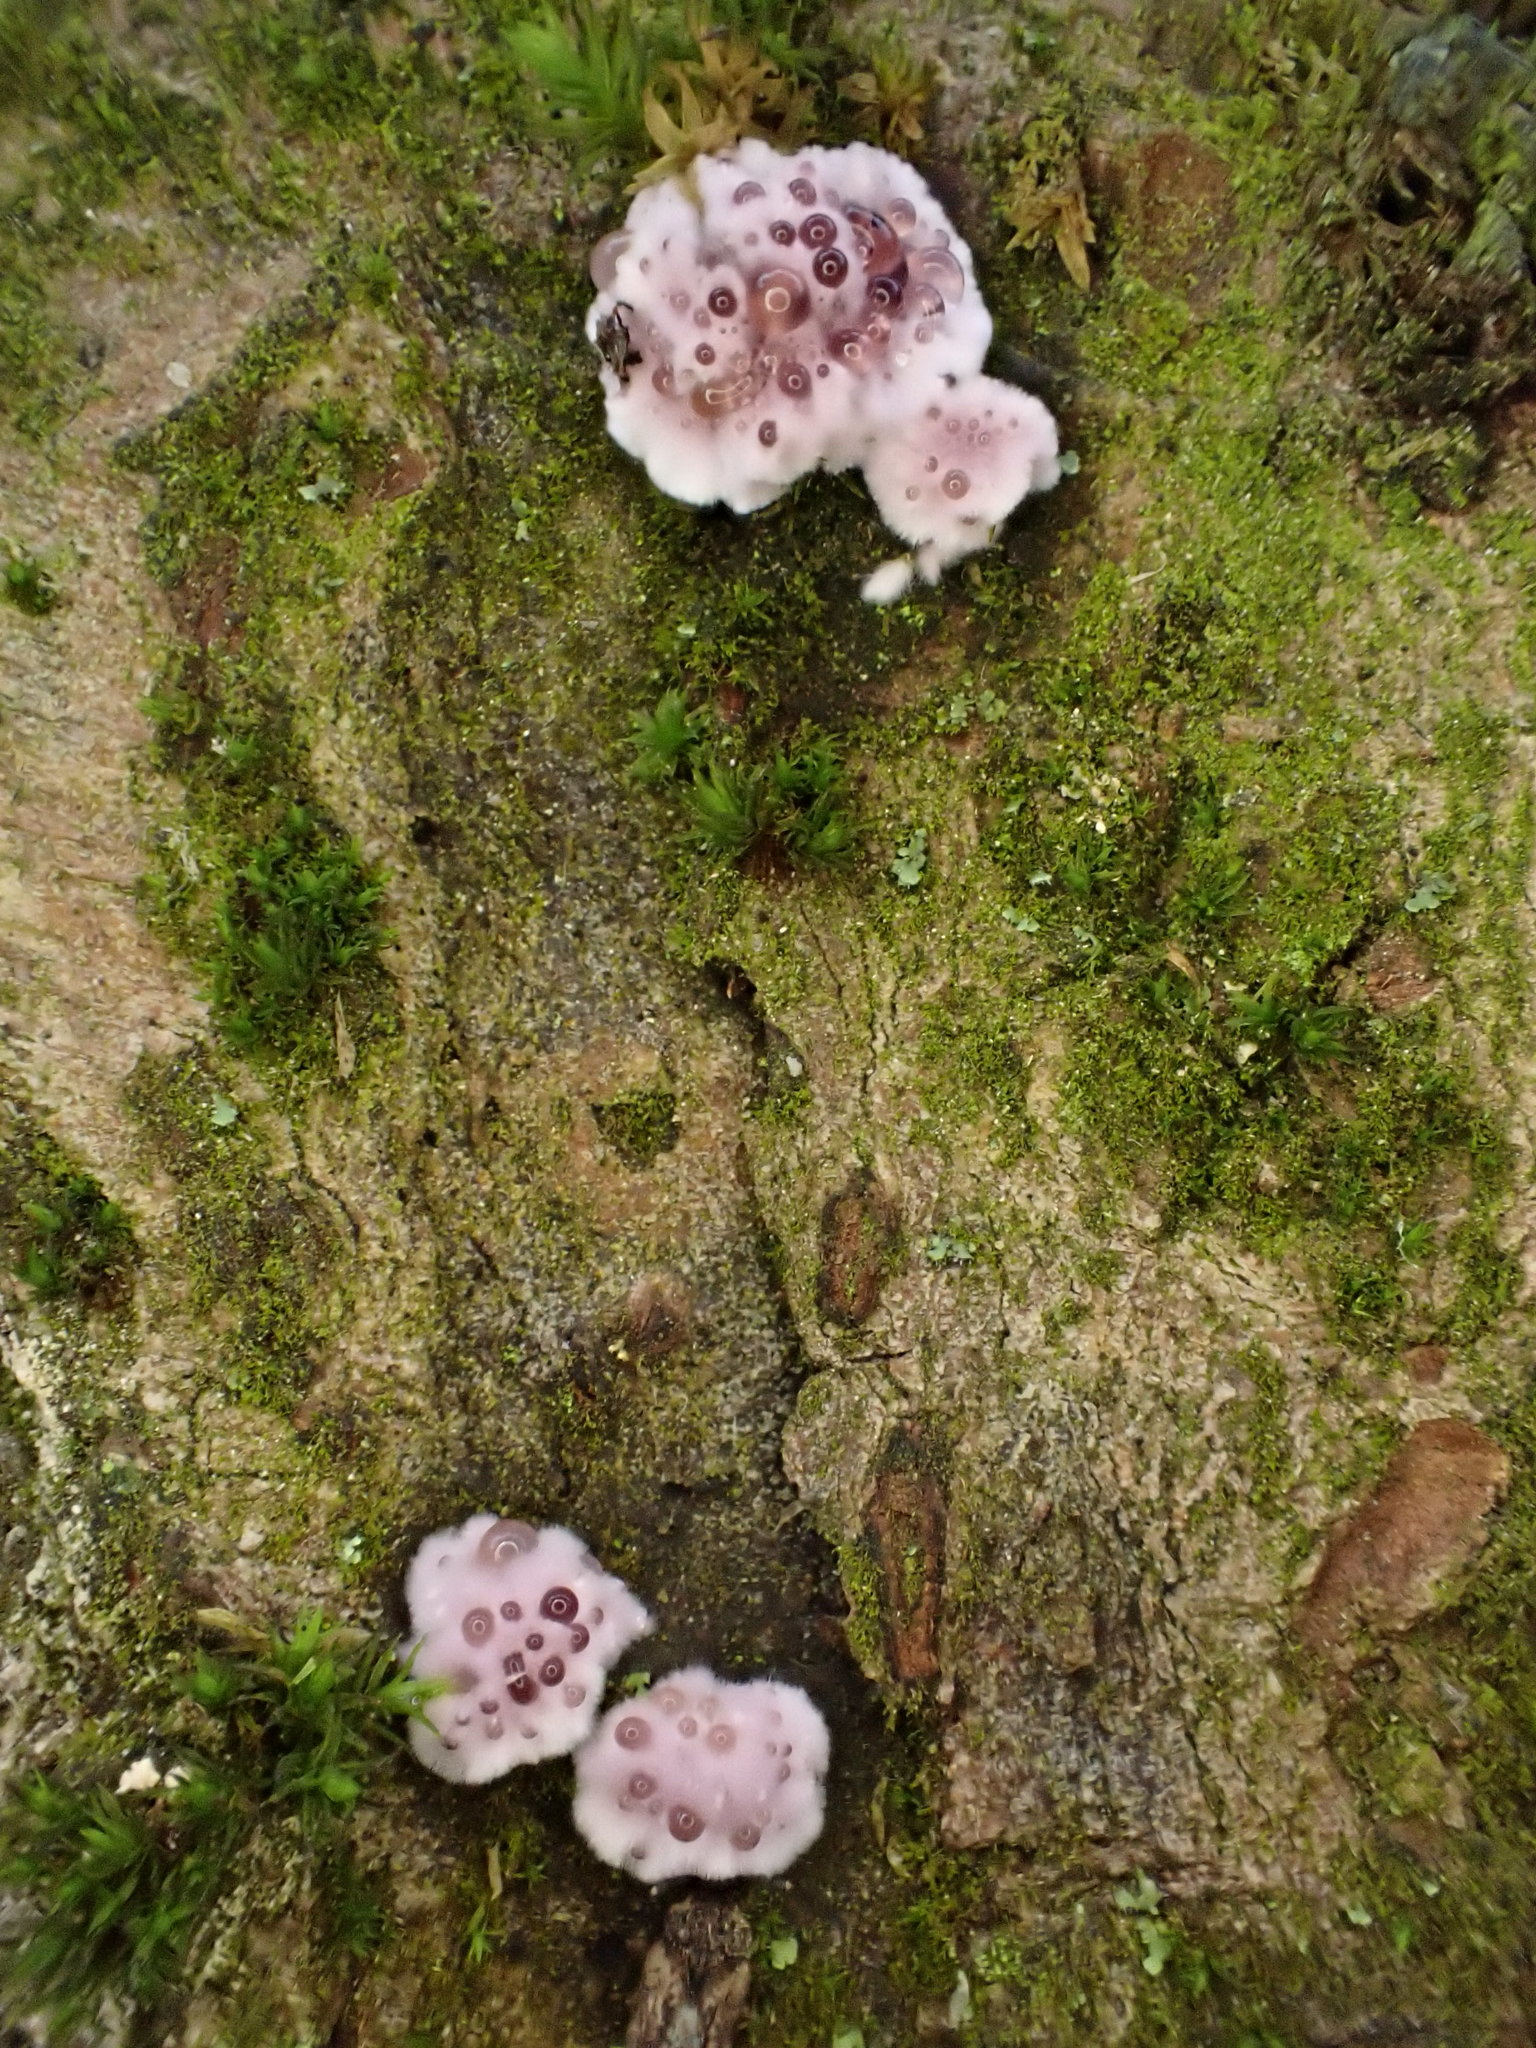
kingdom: Fungi
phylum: Basidiomycota
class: Agaricomycetes
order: Agaricales
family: Cyphellaceae
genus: Chondrostereum
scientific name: Chondrostereum purpureum
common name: Silver leaf disease
